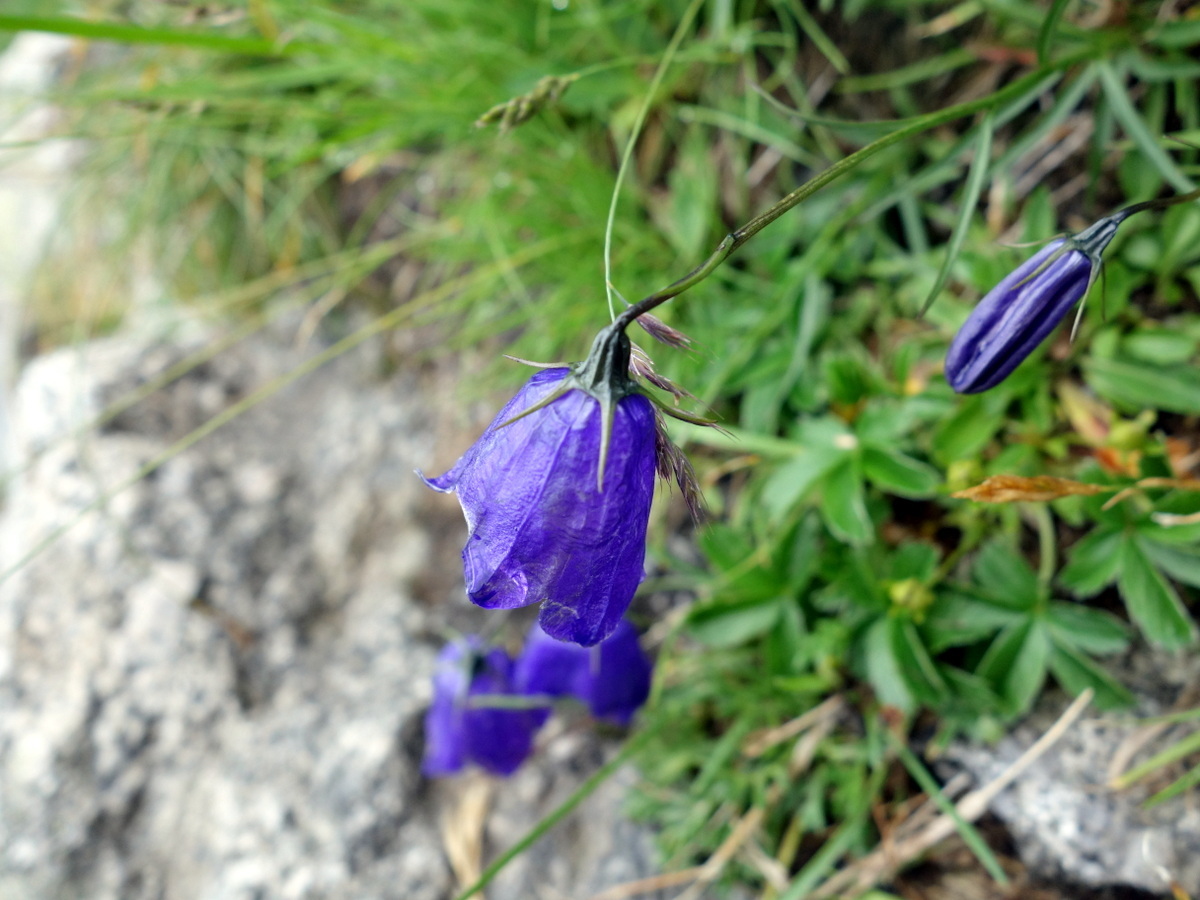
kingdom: Plantae
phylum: Tracheophyta
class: Magnoliopsida
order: Asterales
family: Campanulaceae
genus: Campanula
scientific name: Campanula scheuchzeri
